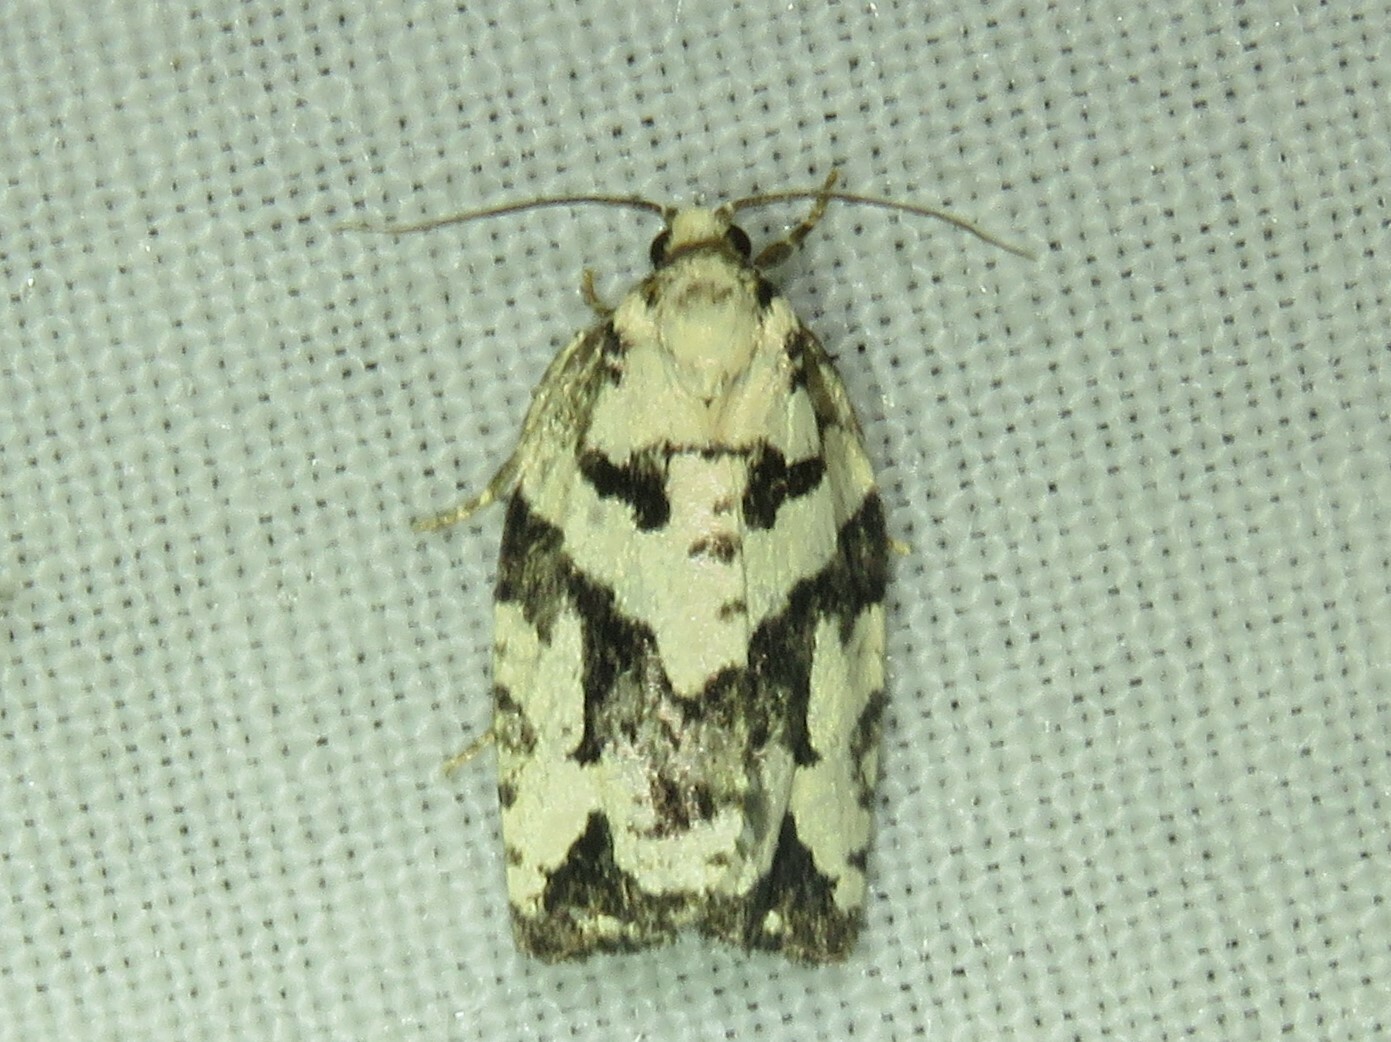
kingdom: Animalia
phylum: Arthropoda
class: Insecta
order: Lepidoptera
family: Tortricidae
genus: Archips
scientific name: Archips dissitana
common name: Boldly-marked archips moth
